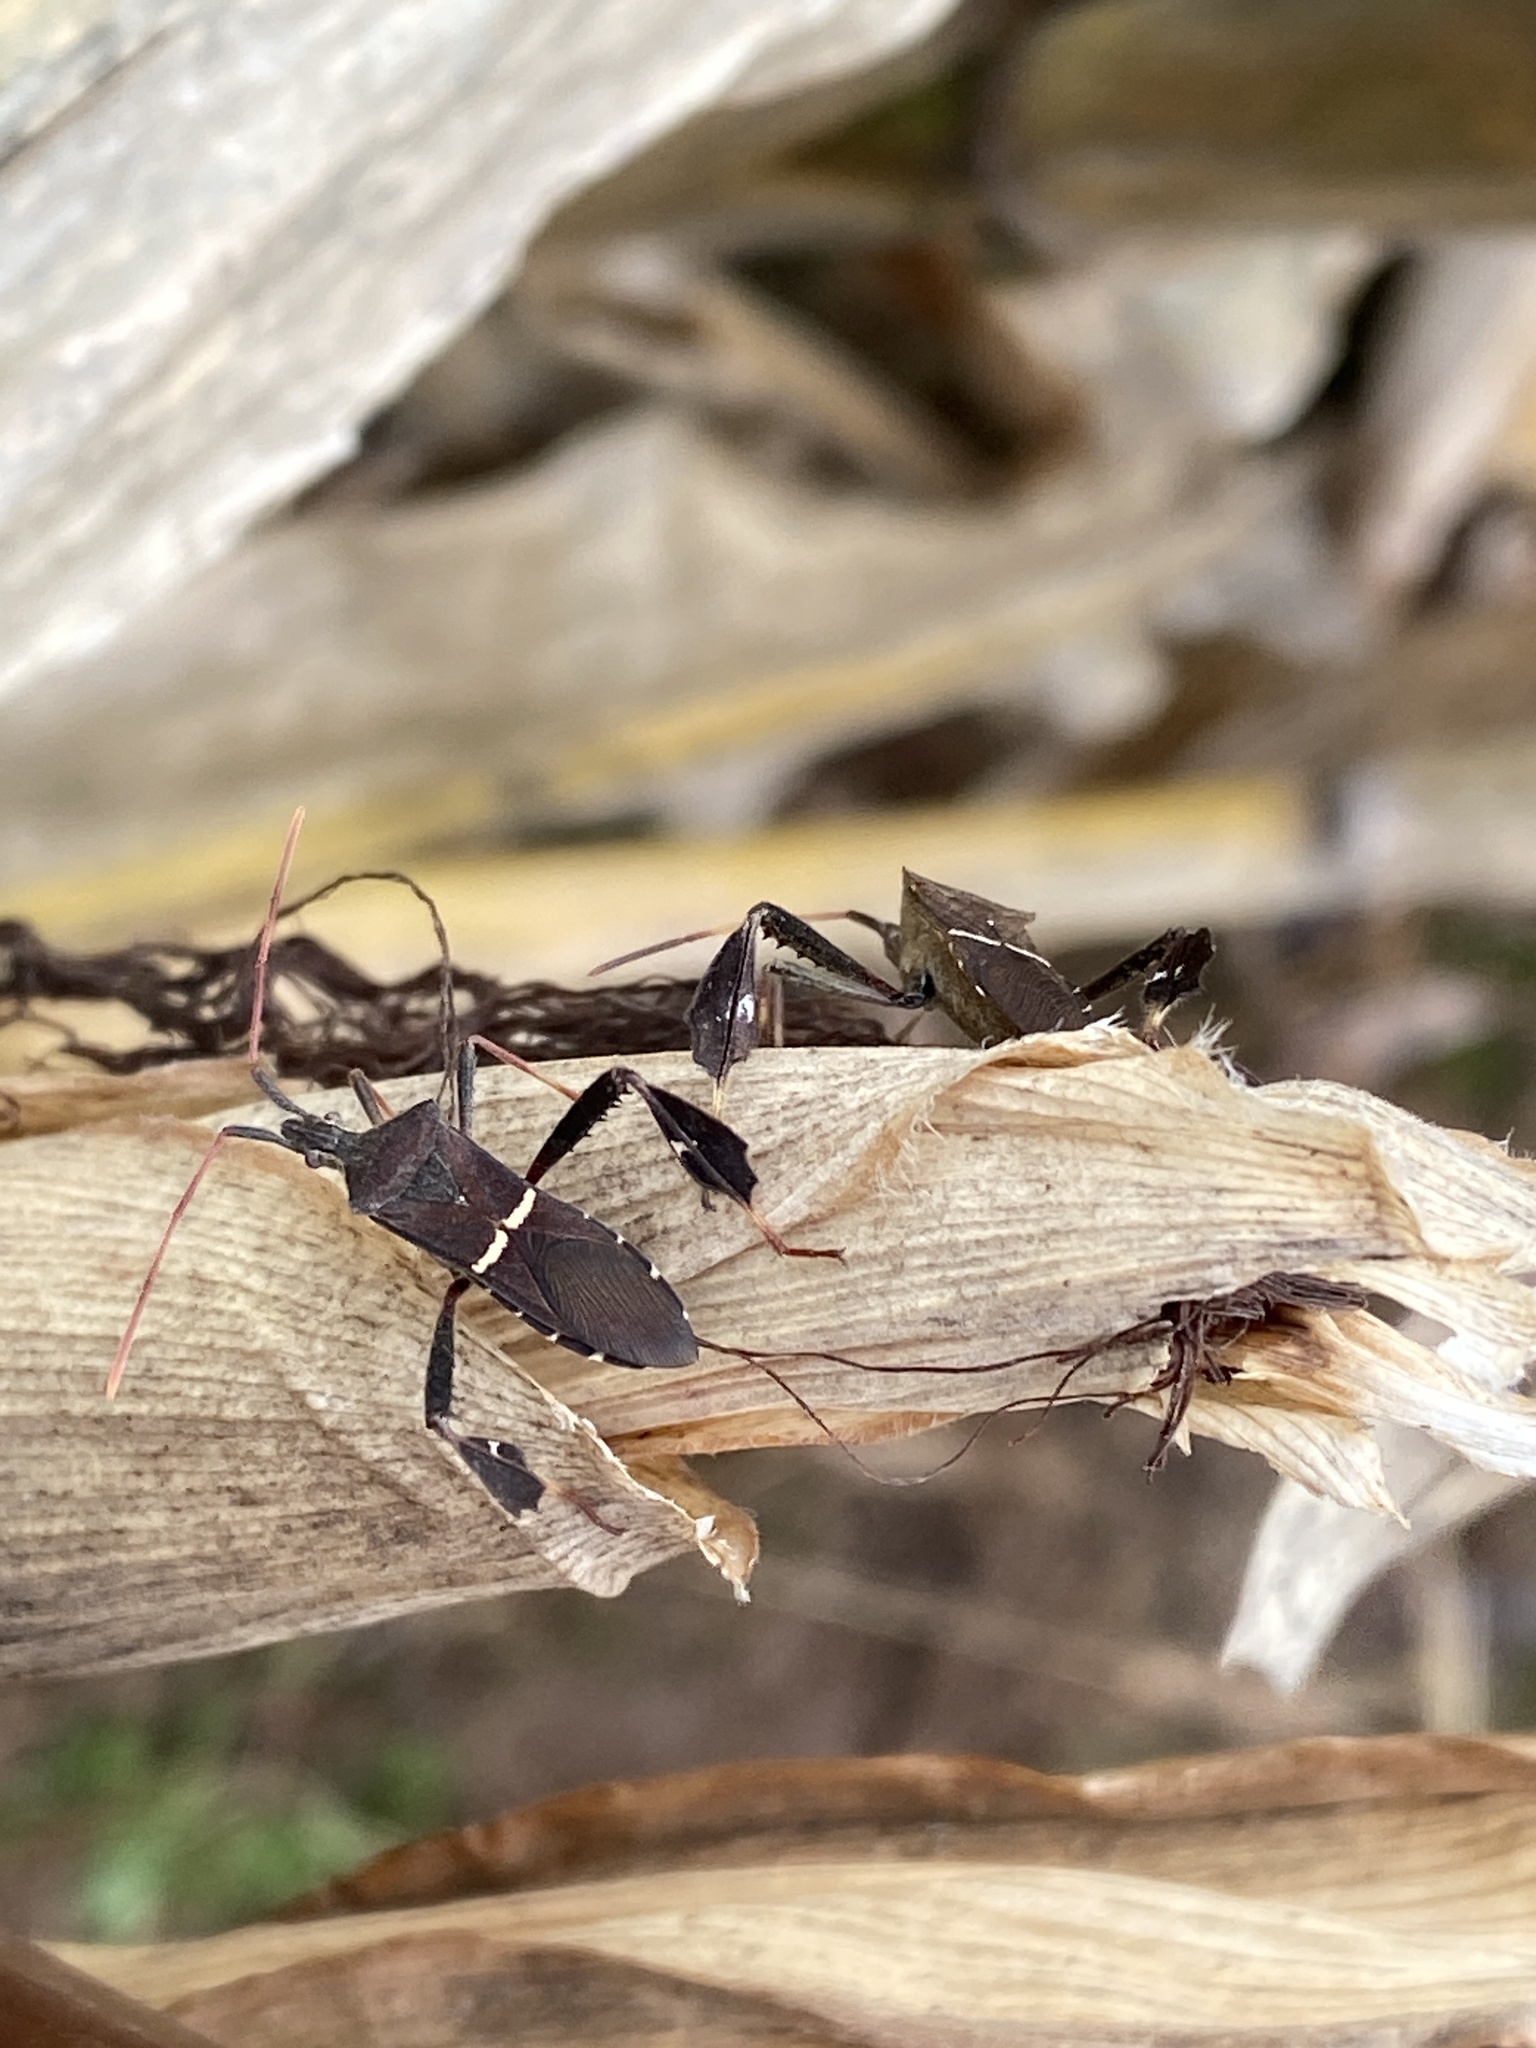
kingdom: Animalia
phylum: Arthropoda
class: Insecta
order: Hemiptera
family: Coreidae
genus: Leptoglossus
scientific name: Leptoglossus phyllopus
